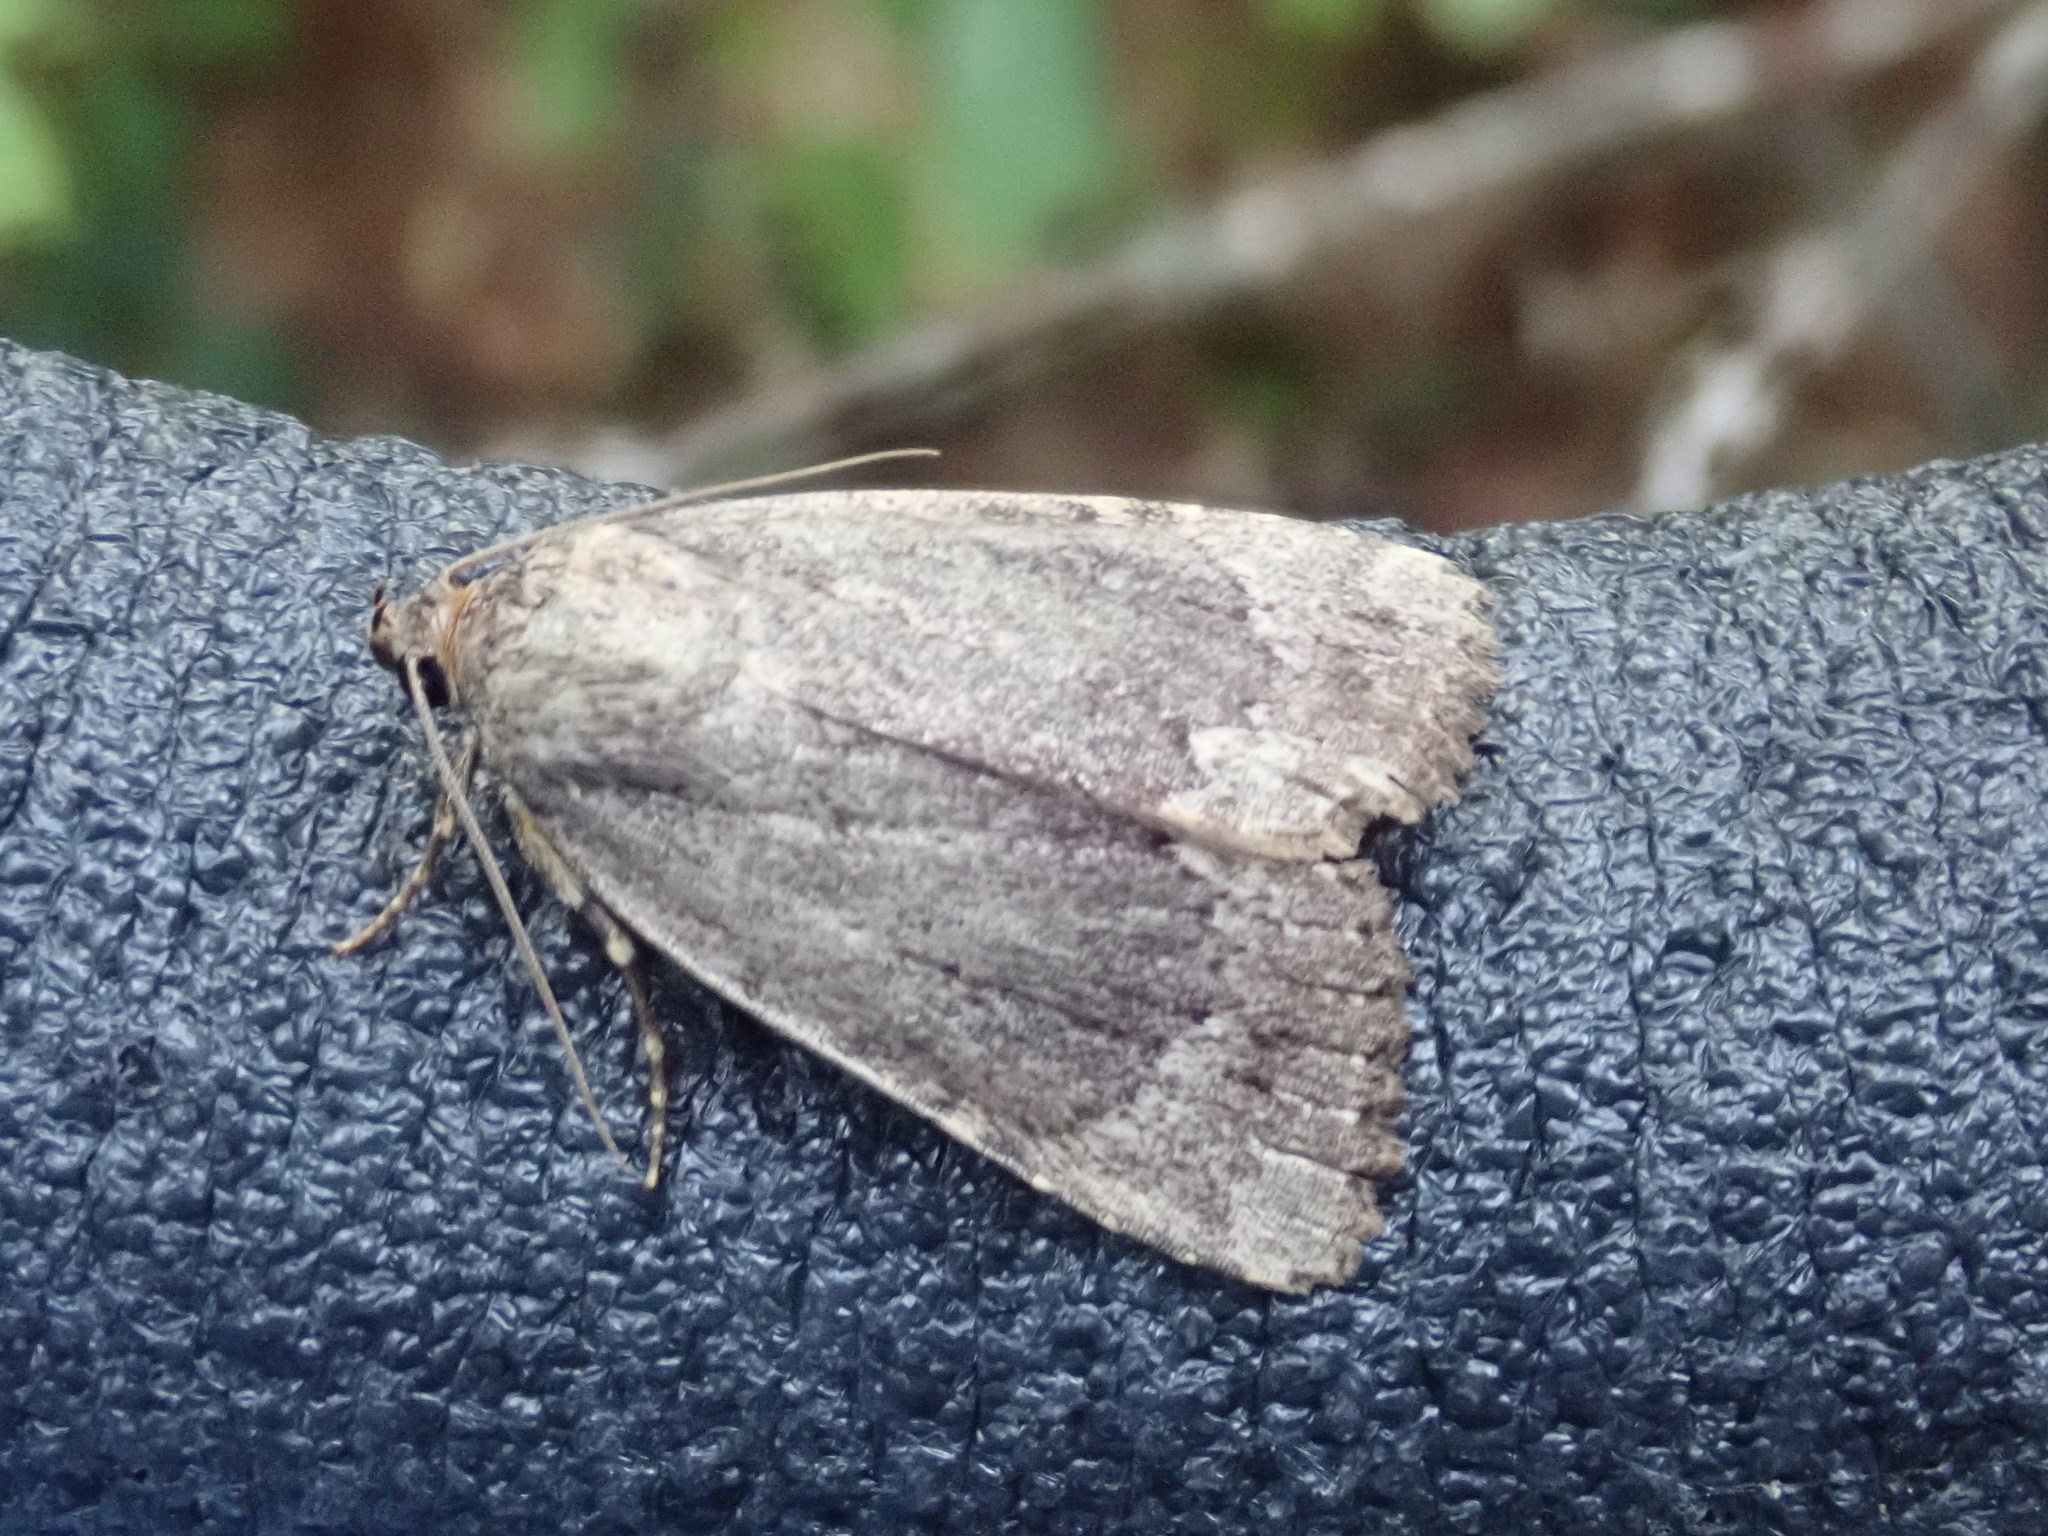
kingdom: Animalia
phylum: Arthropoda
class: Insecta
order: Lepidoptera
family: Noctuidae
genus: Amphipyra
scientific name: Amphipyra pyramidoides
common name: American copper underwing
